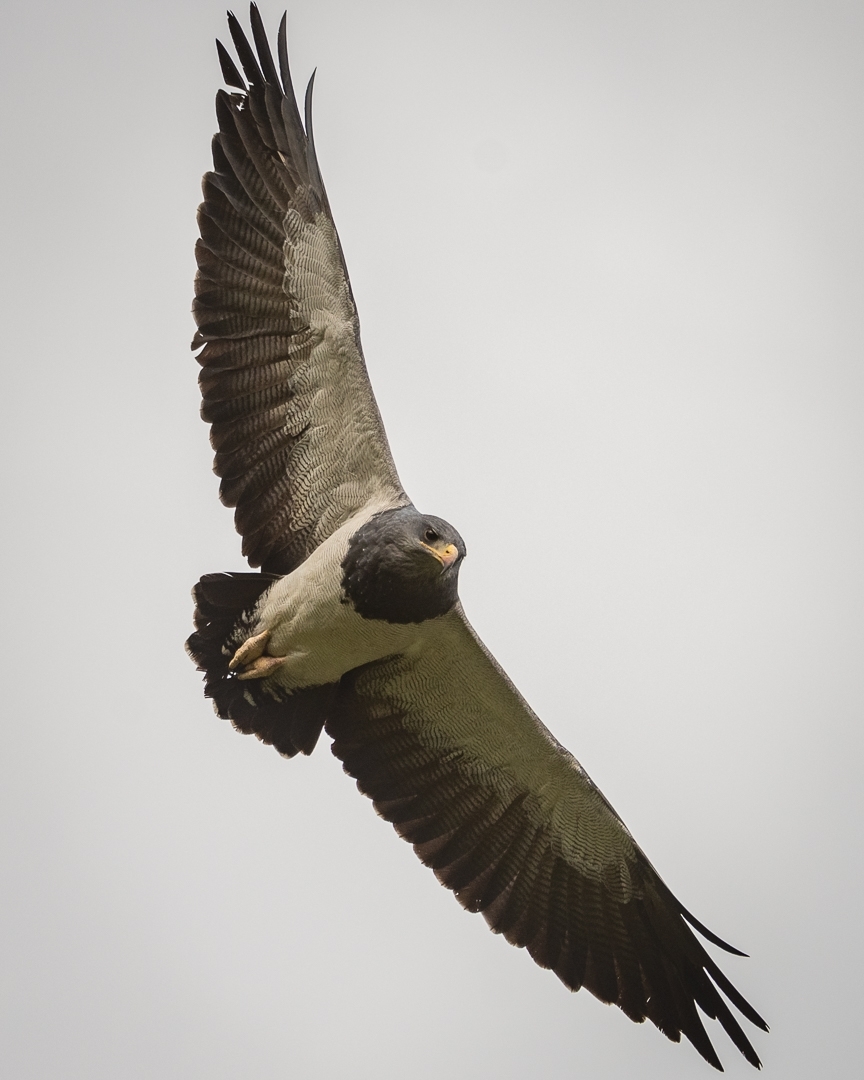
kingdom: Animalia
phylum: Chordata
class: Aves
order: Accipitriformes
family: Accipitridae
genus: Geranoaetus
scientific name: Geranoaetus melanoleucus
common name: Black-chested buzzard-eagle
